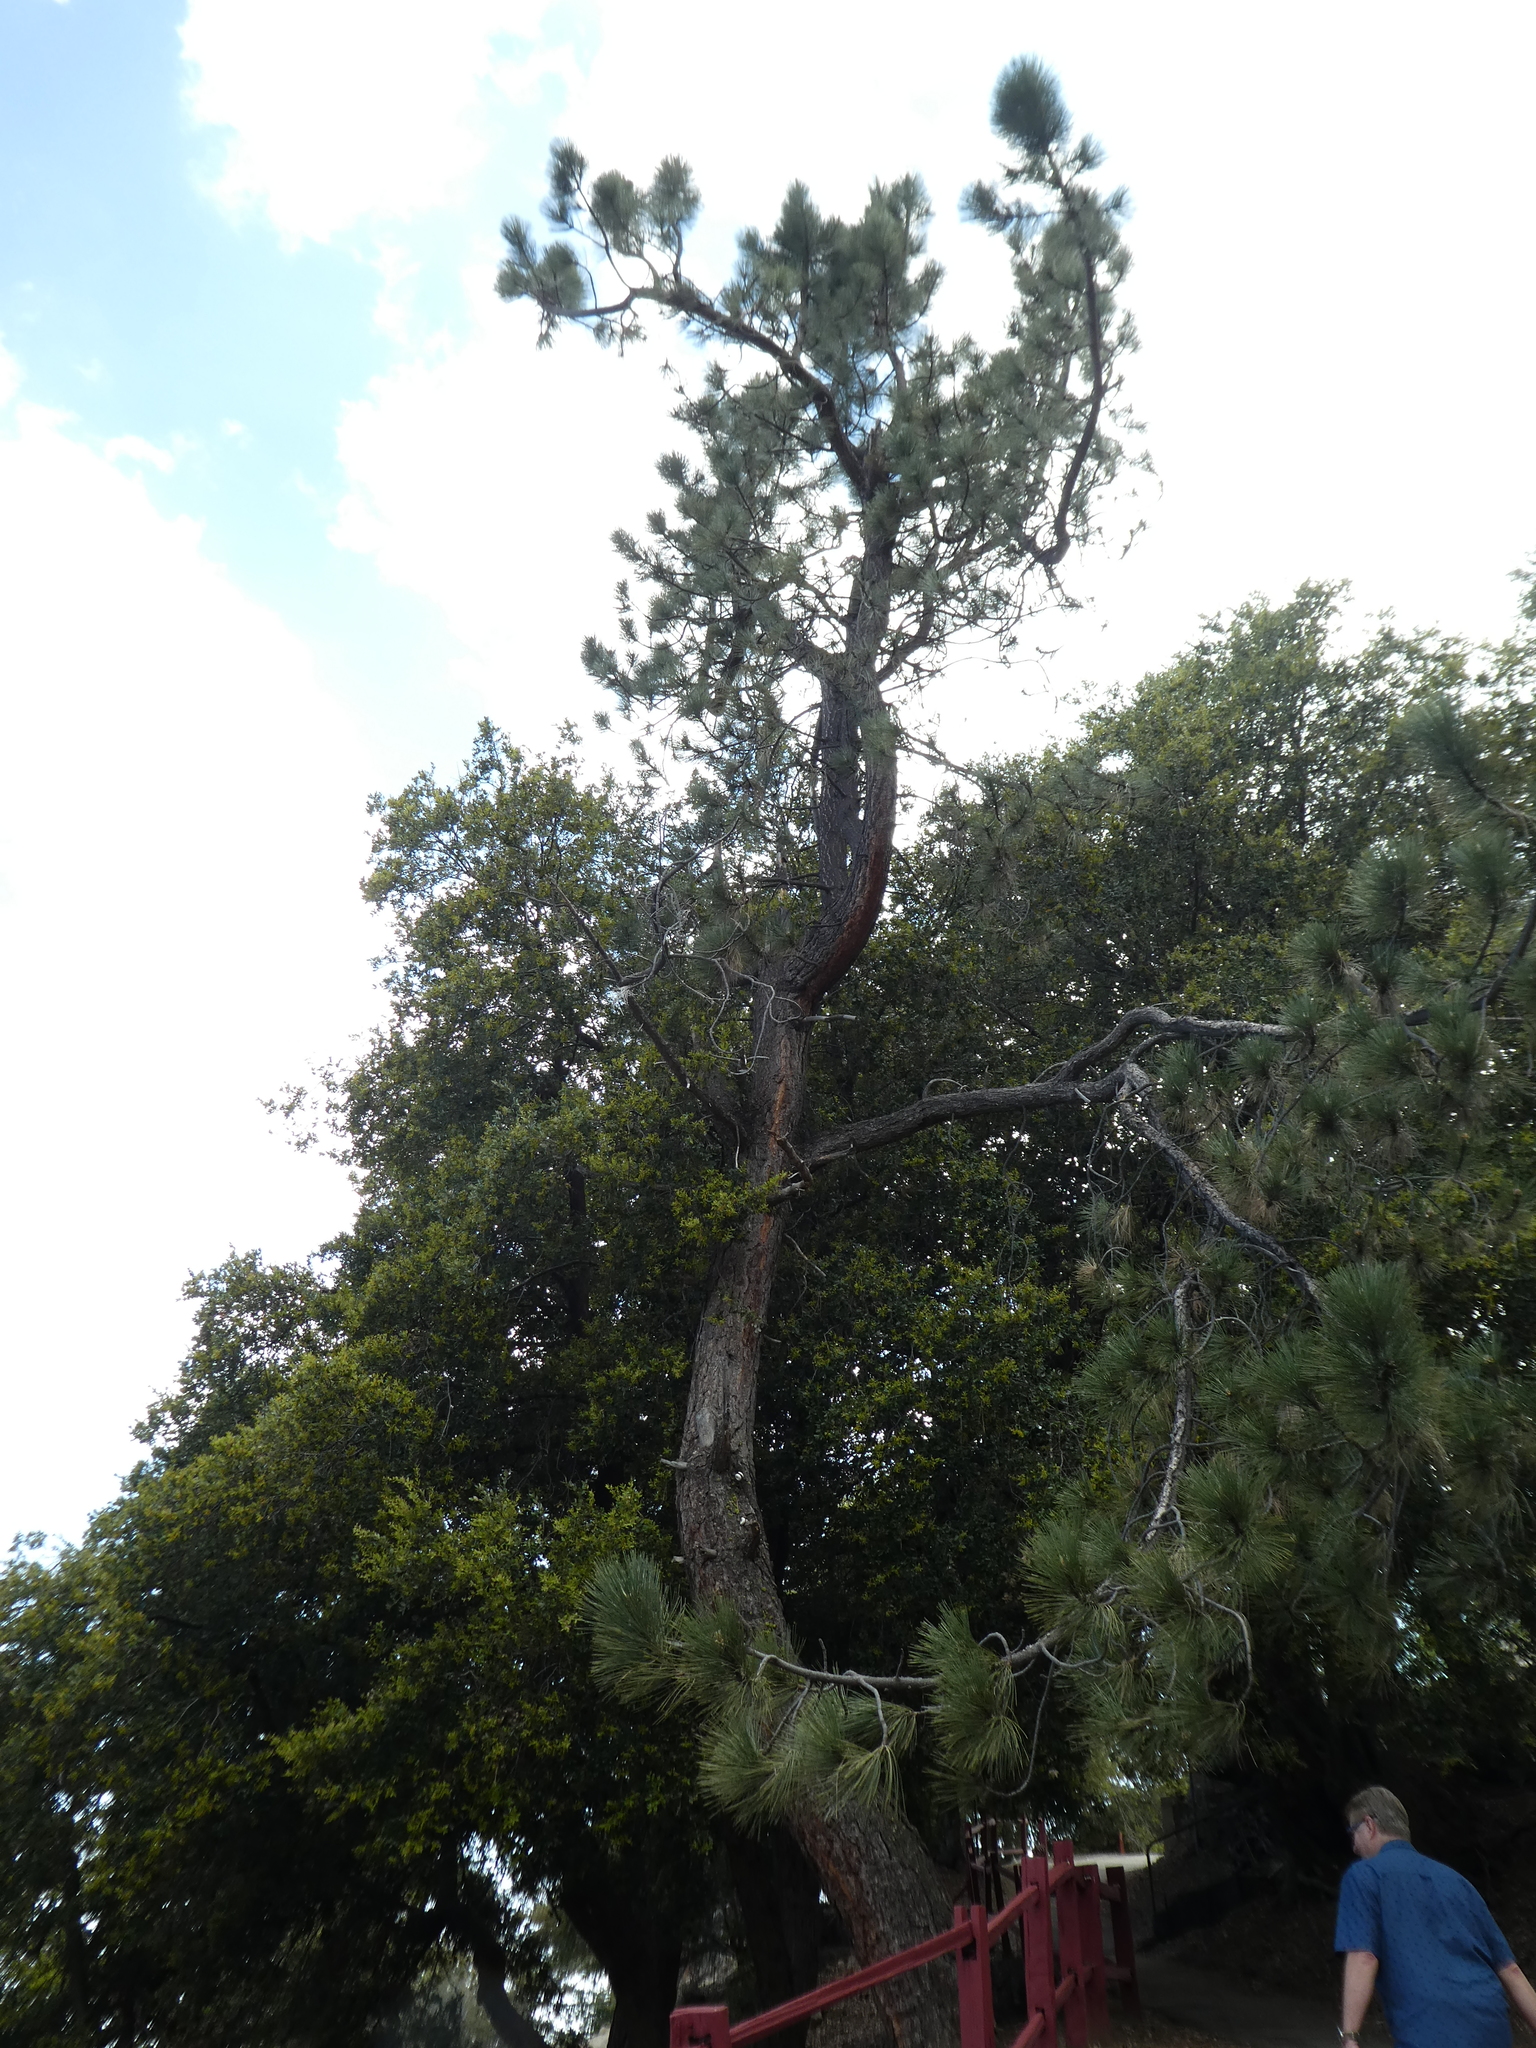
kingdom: Plantae
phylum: Tracheophyta
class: Pinopsida
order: Pinales
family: Pinaceae
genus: Pinus
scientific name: Pinus coulteri
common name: Coulter pine
